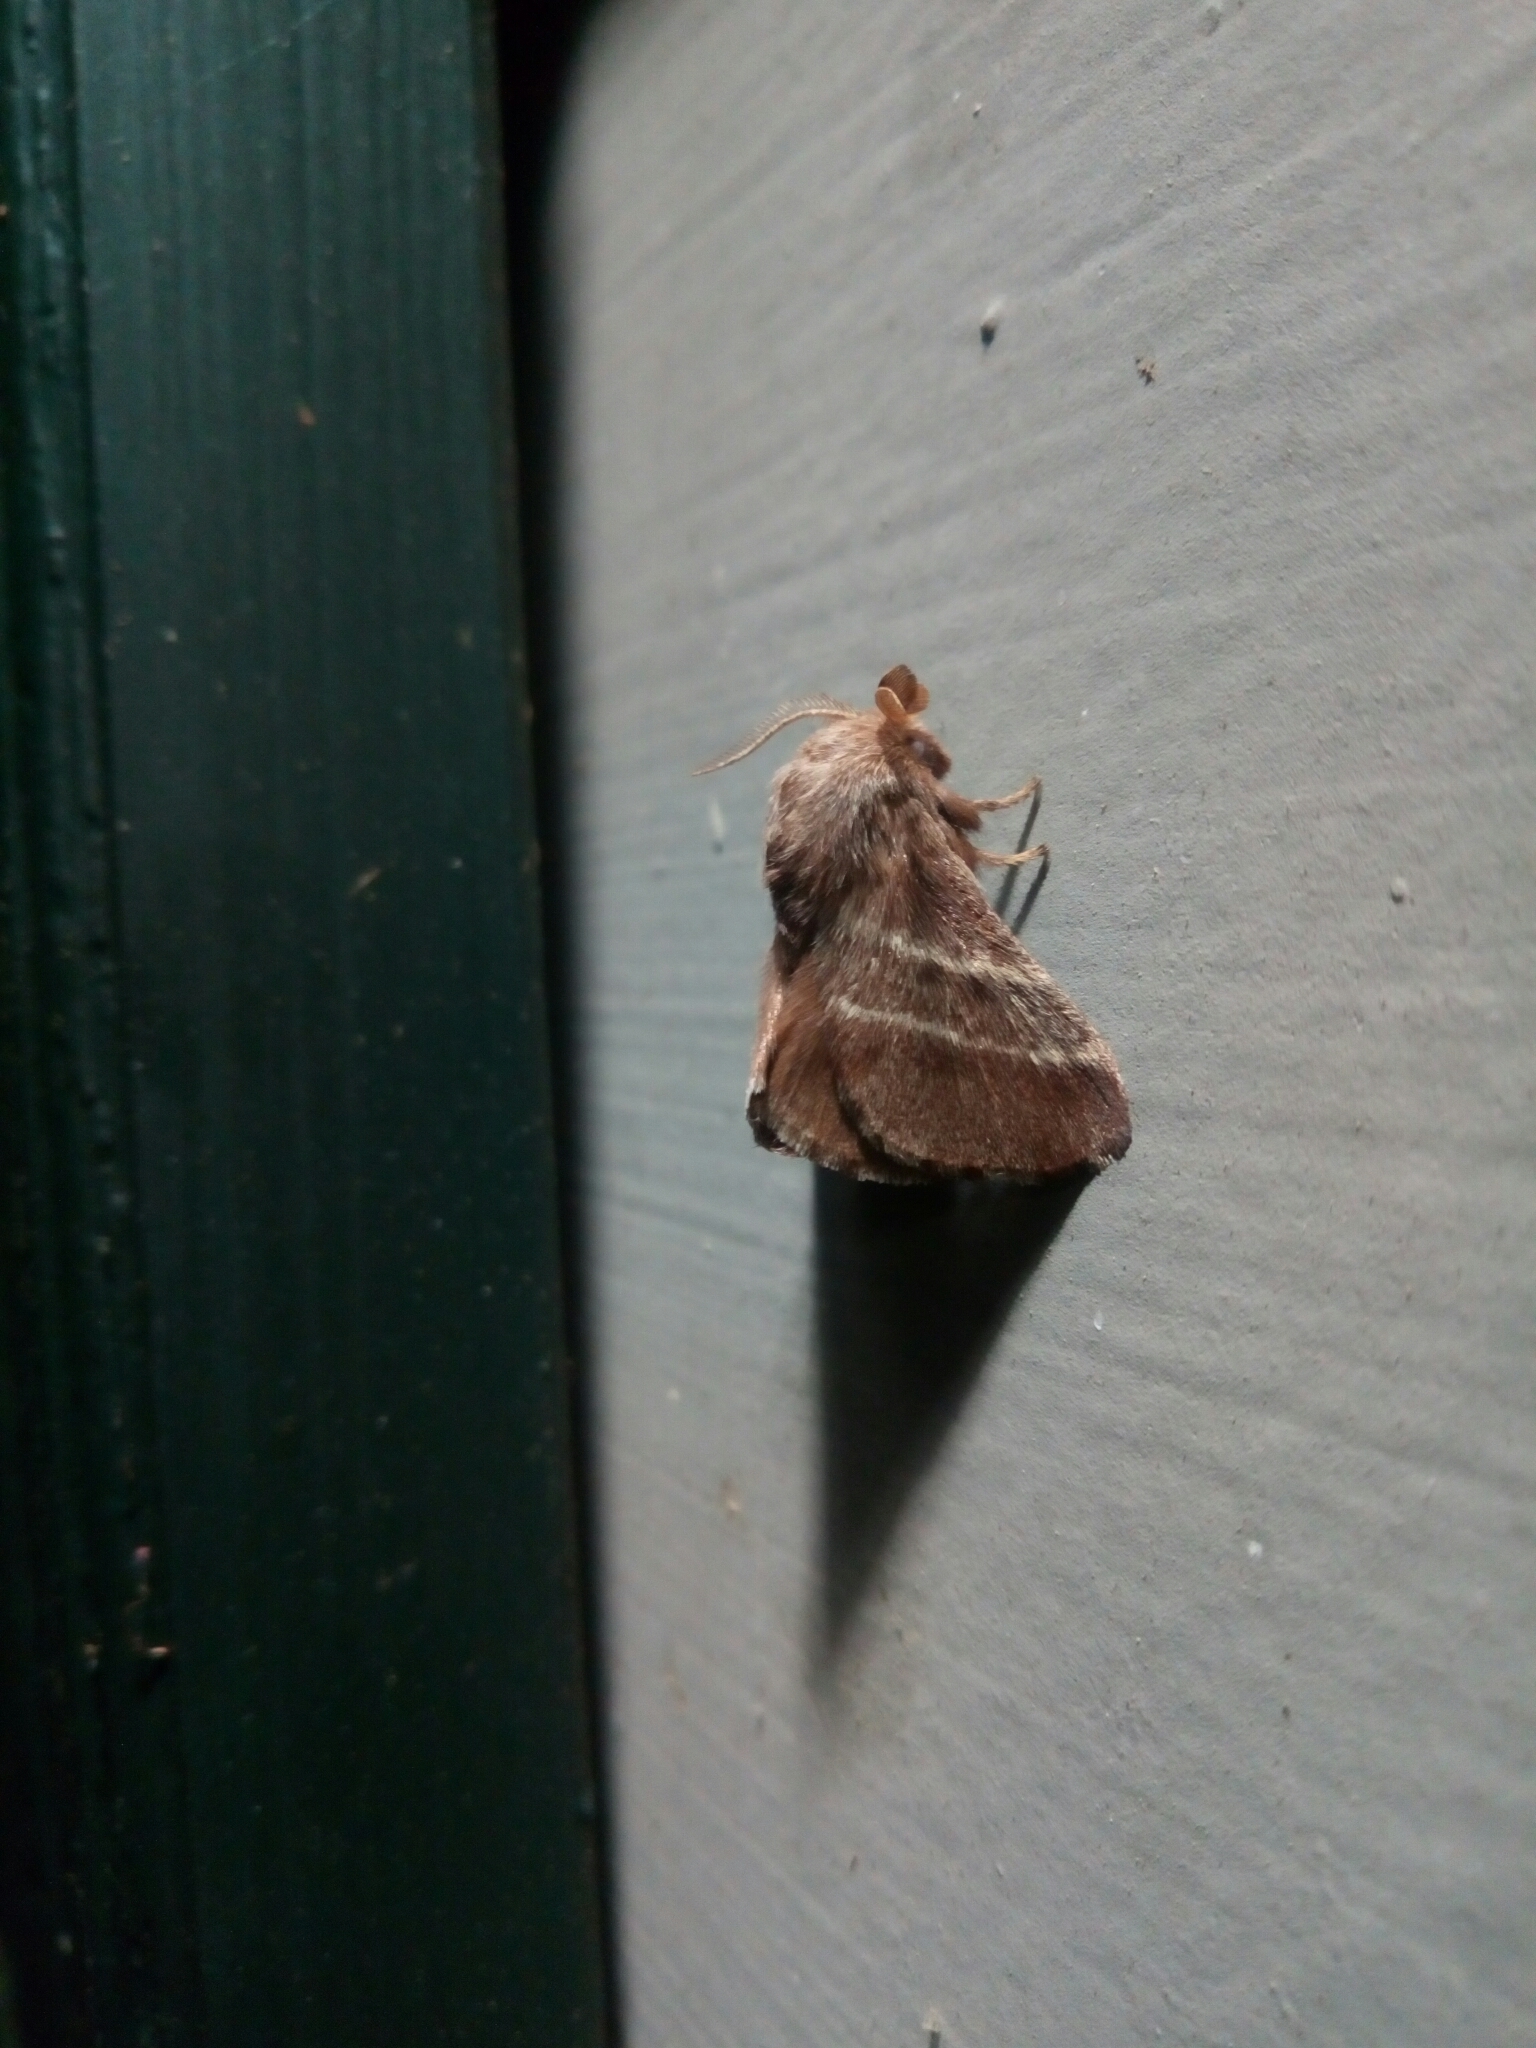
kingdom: Animalia
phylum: Arthropoda
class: Insecta
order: Lepidoptera
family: Lasiocampidae
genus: Malacosoma
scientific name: Malacosoma americana
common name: Eastern tent caterpillar moth
